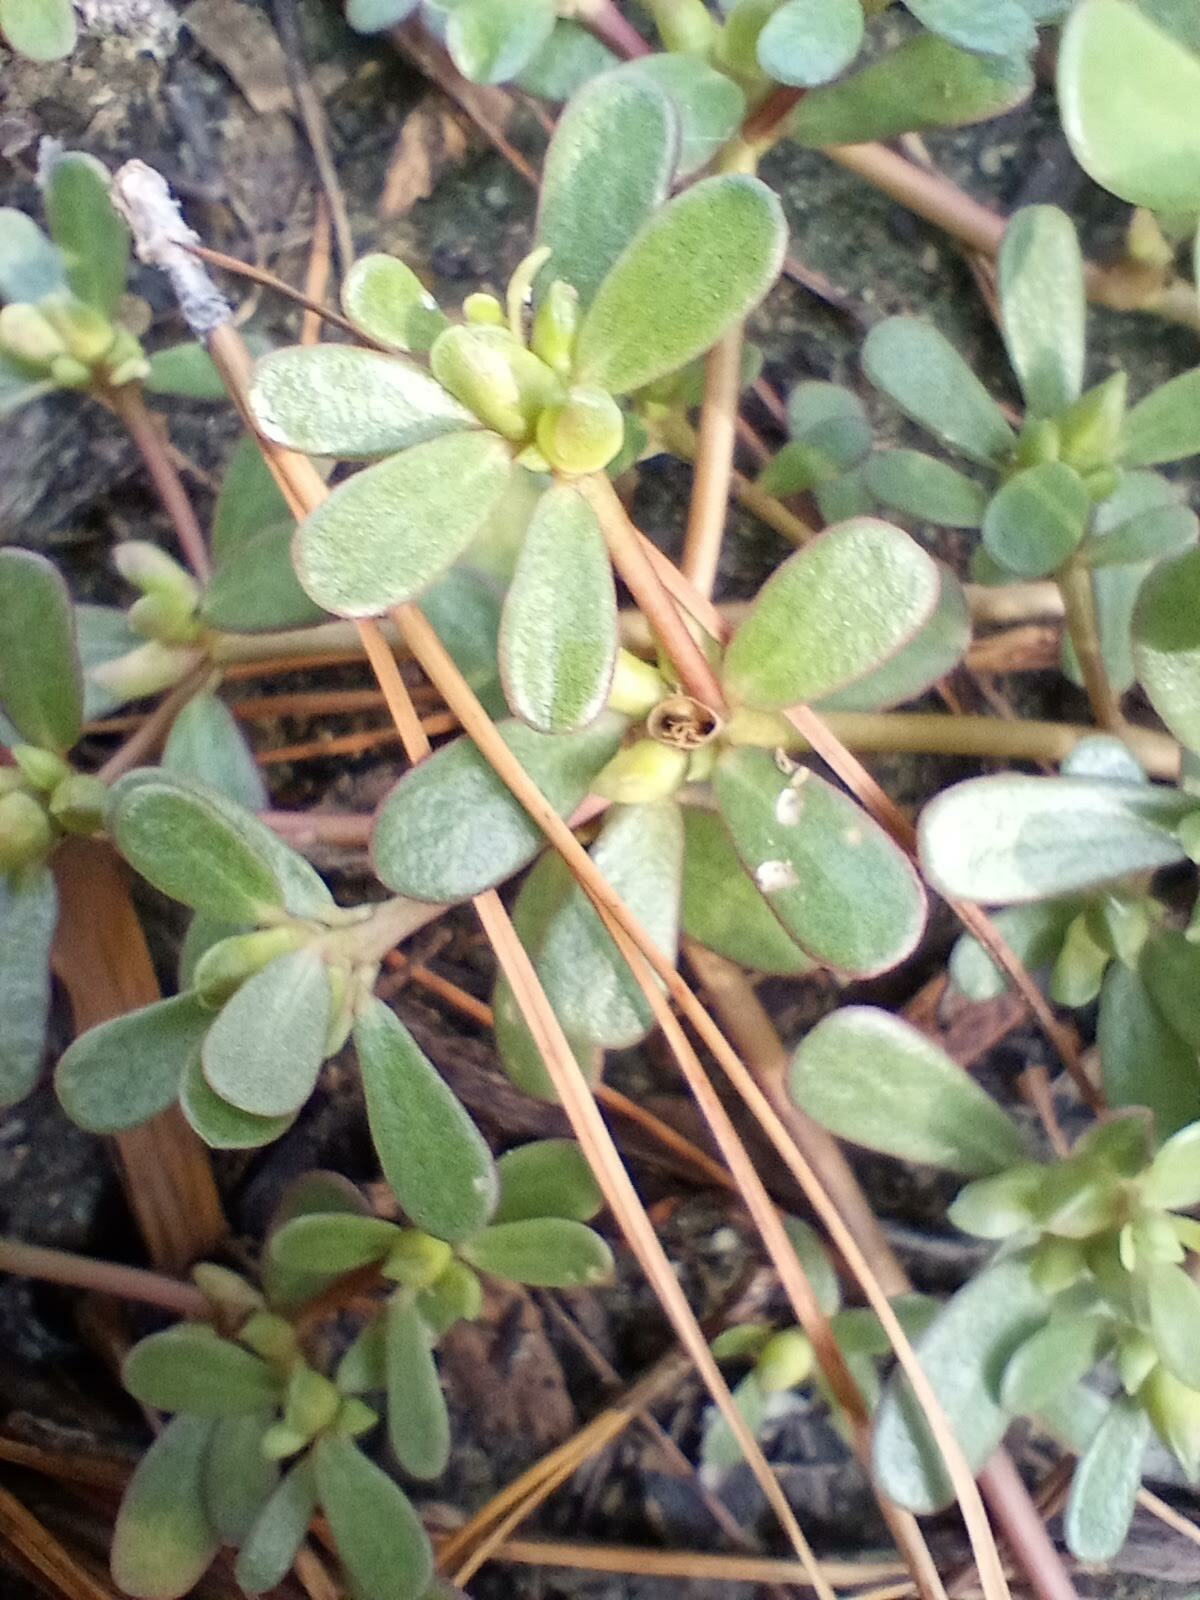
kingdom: Plantae
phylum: Tracheophyta
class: Magnoliopsida
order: Caryophyllales
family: Portulacaceae
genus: Portulaca
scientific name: Portulaca oleracea
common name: Common purslane
